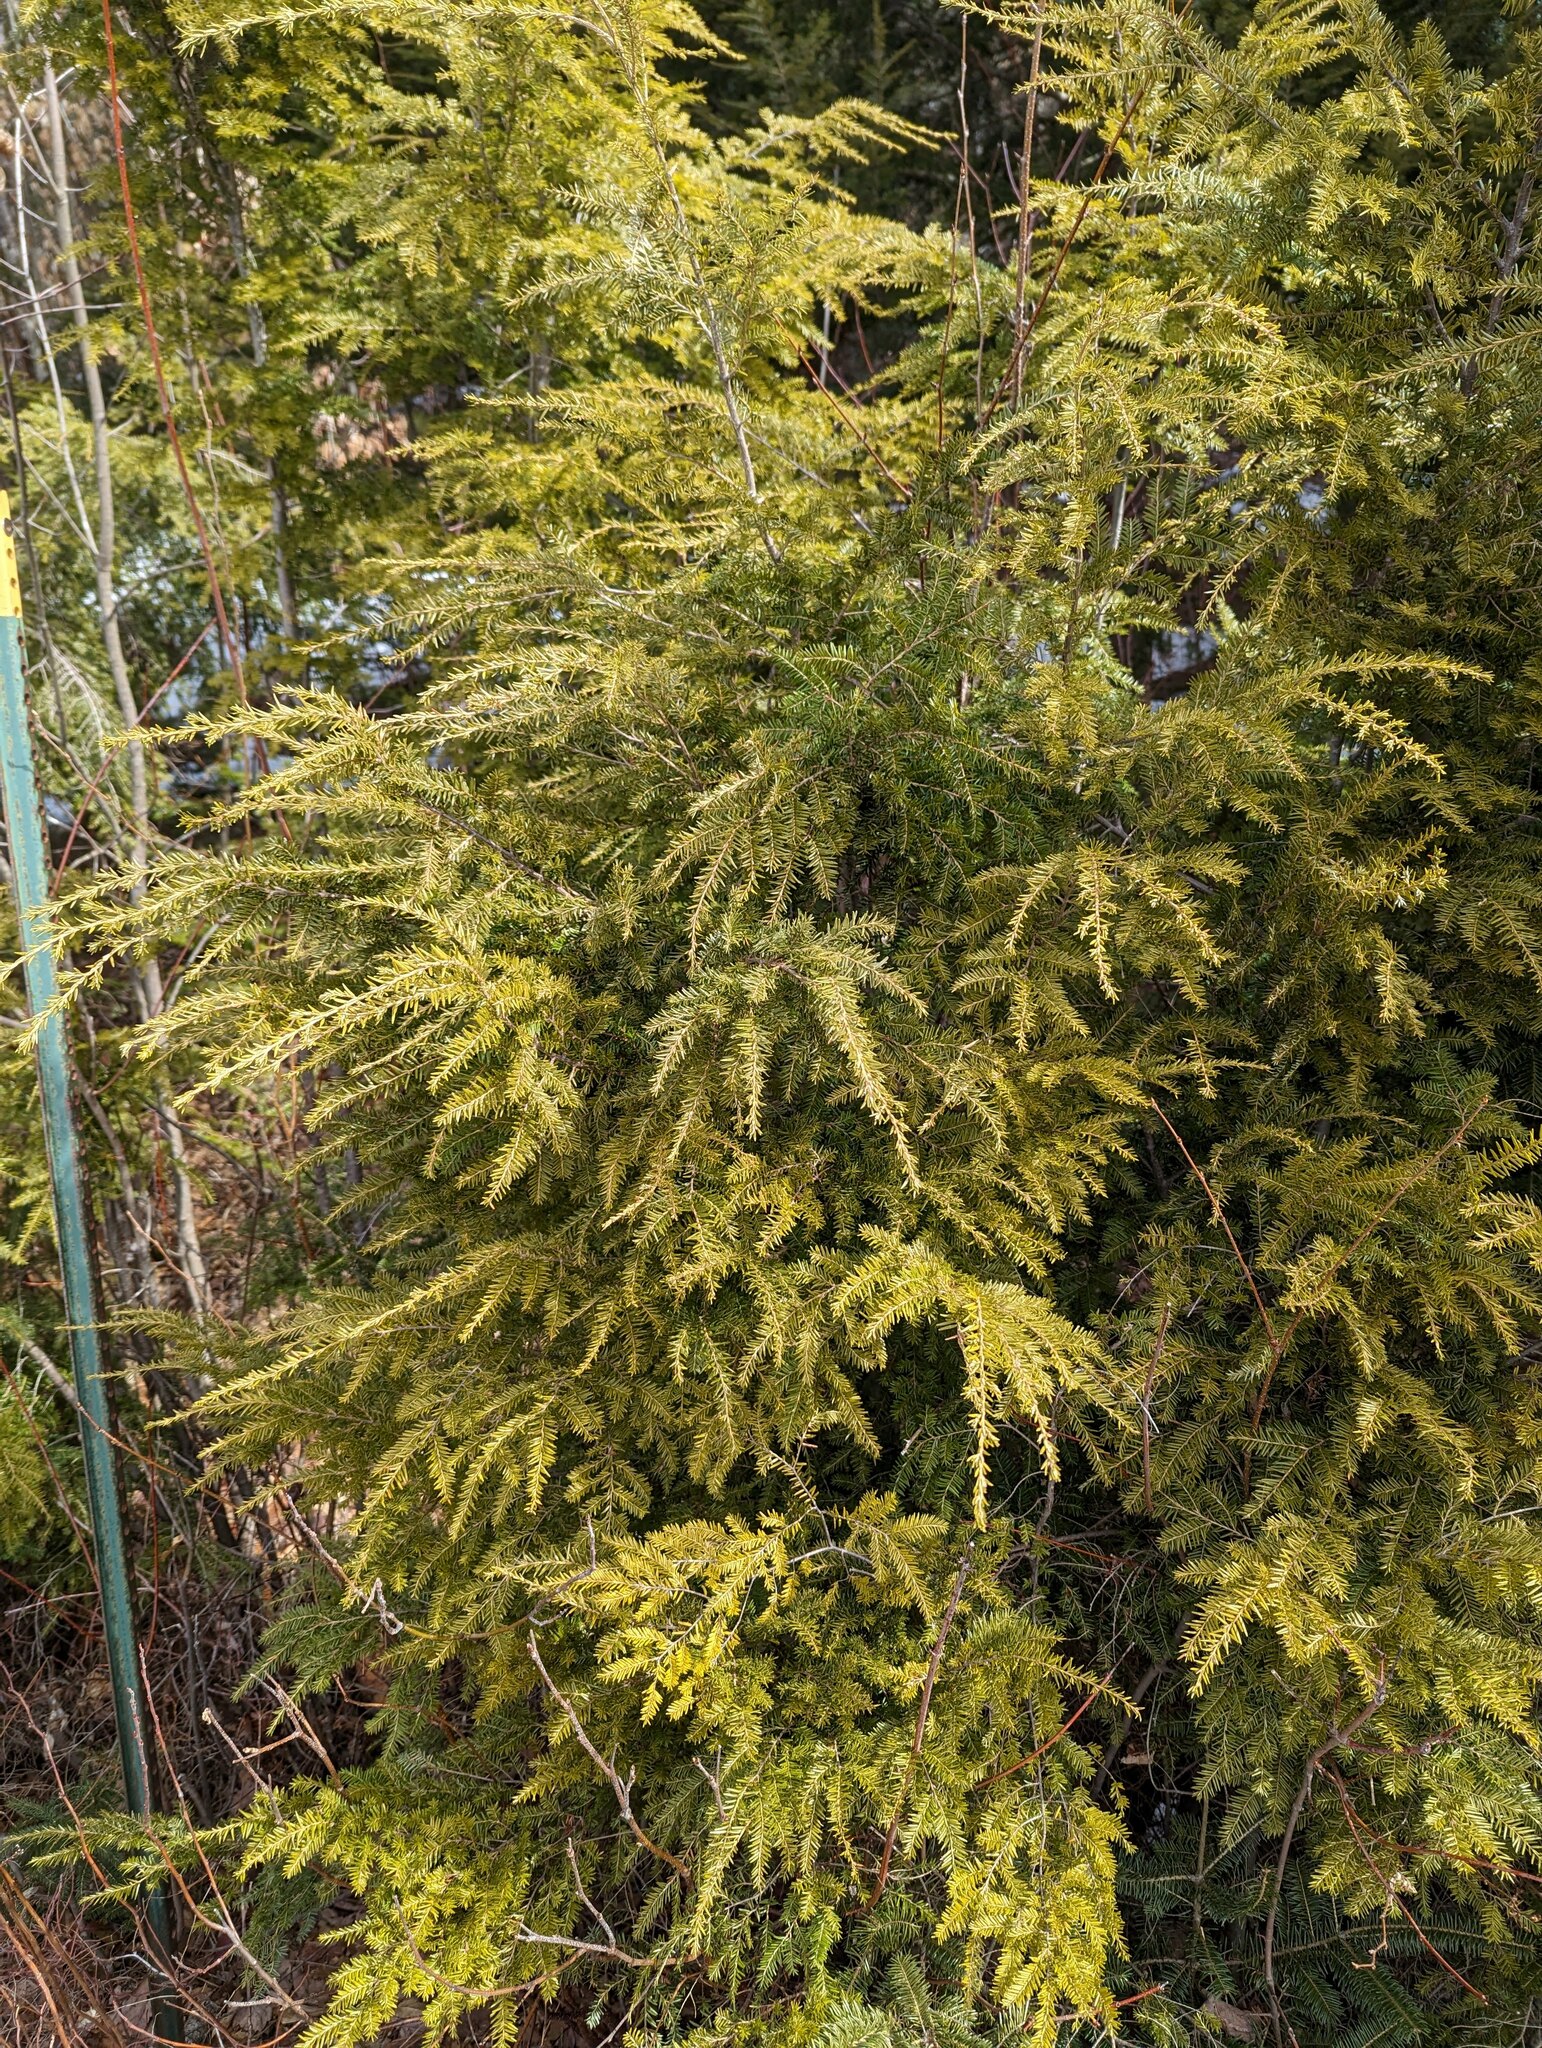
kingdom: Plantae
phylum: Tracheophyta
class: Pinopsida
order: Pinales
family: Pinaceae
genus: Tsuga
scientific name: Tsuga canadensis
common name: Eastern hemlock
